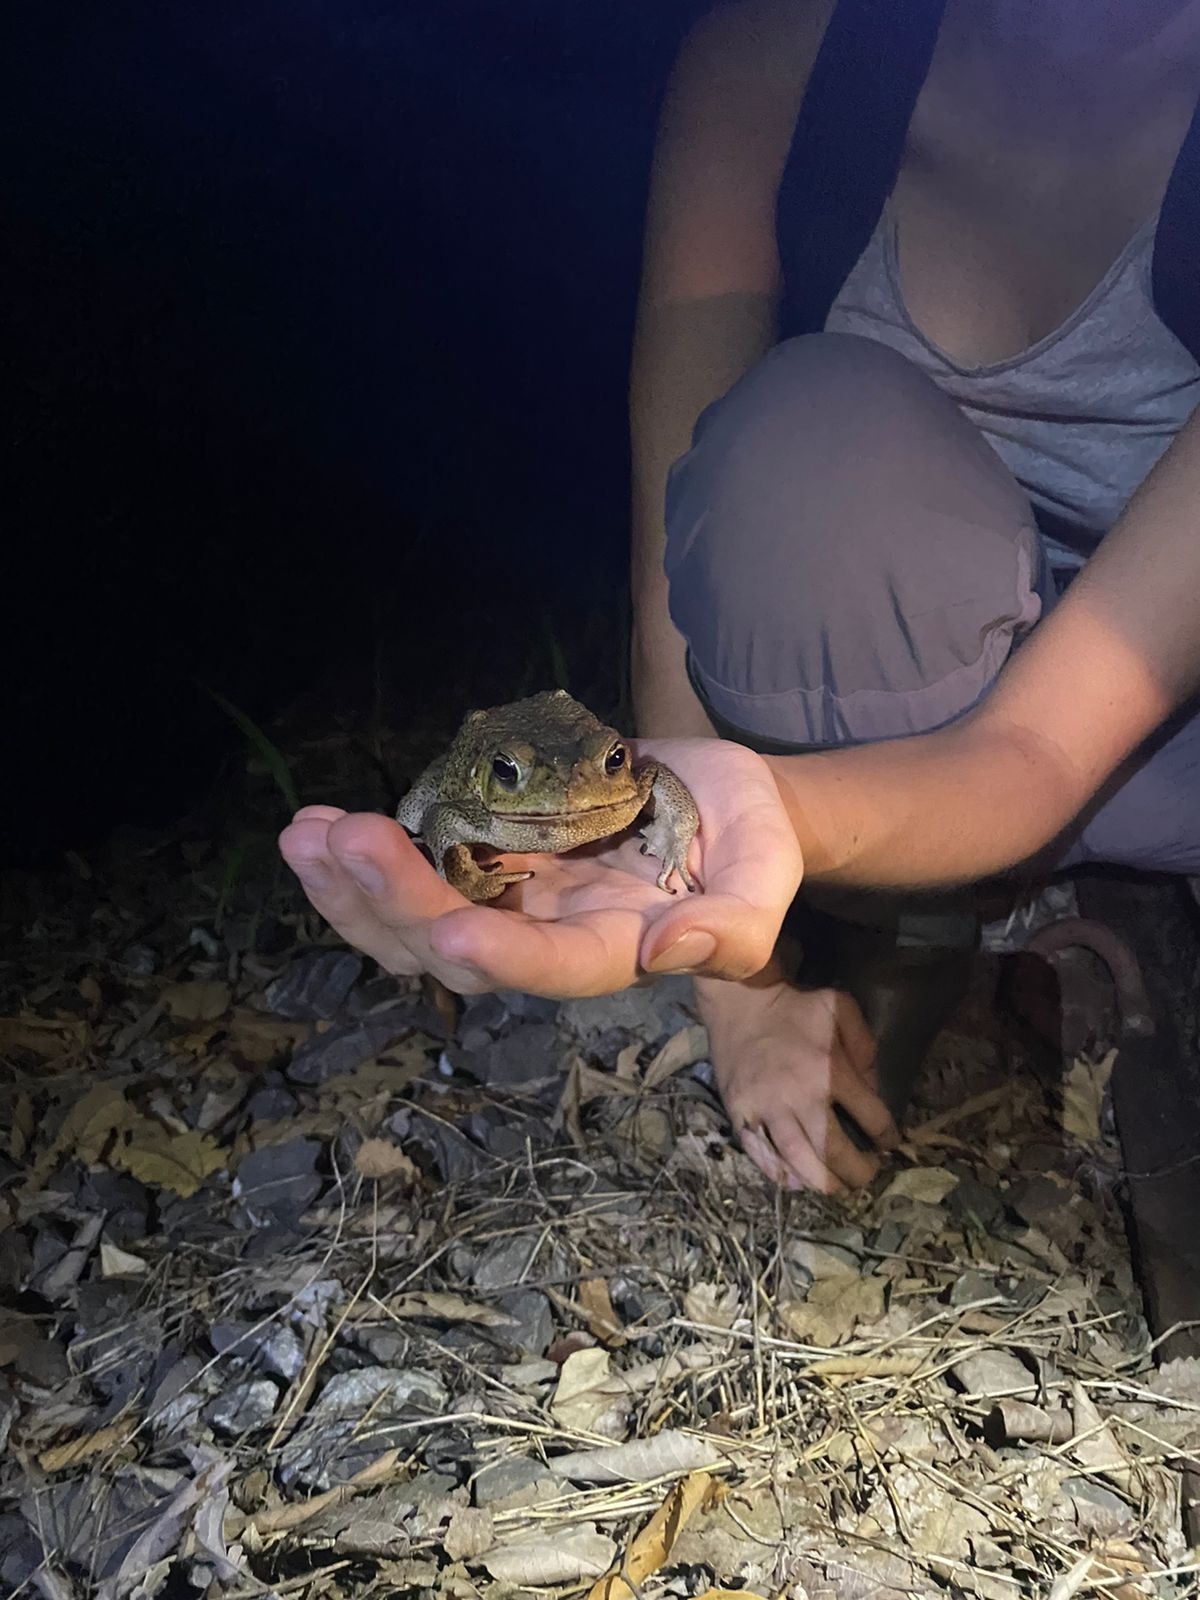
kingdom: Animalia
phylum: Chordata
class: Amphibia
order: Anura
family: Bufonidae
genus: Rhinella
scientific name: Rhinella horribilis
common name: Mesoamerican cane toad
